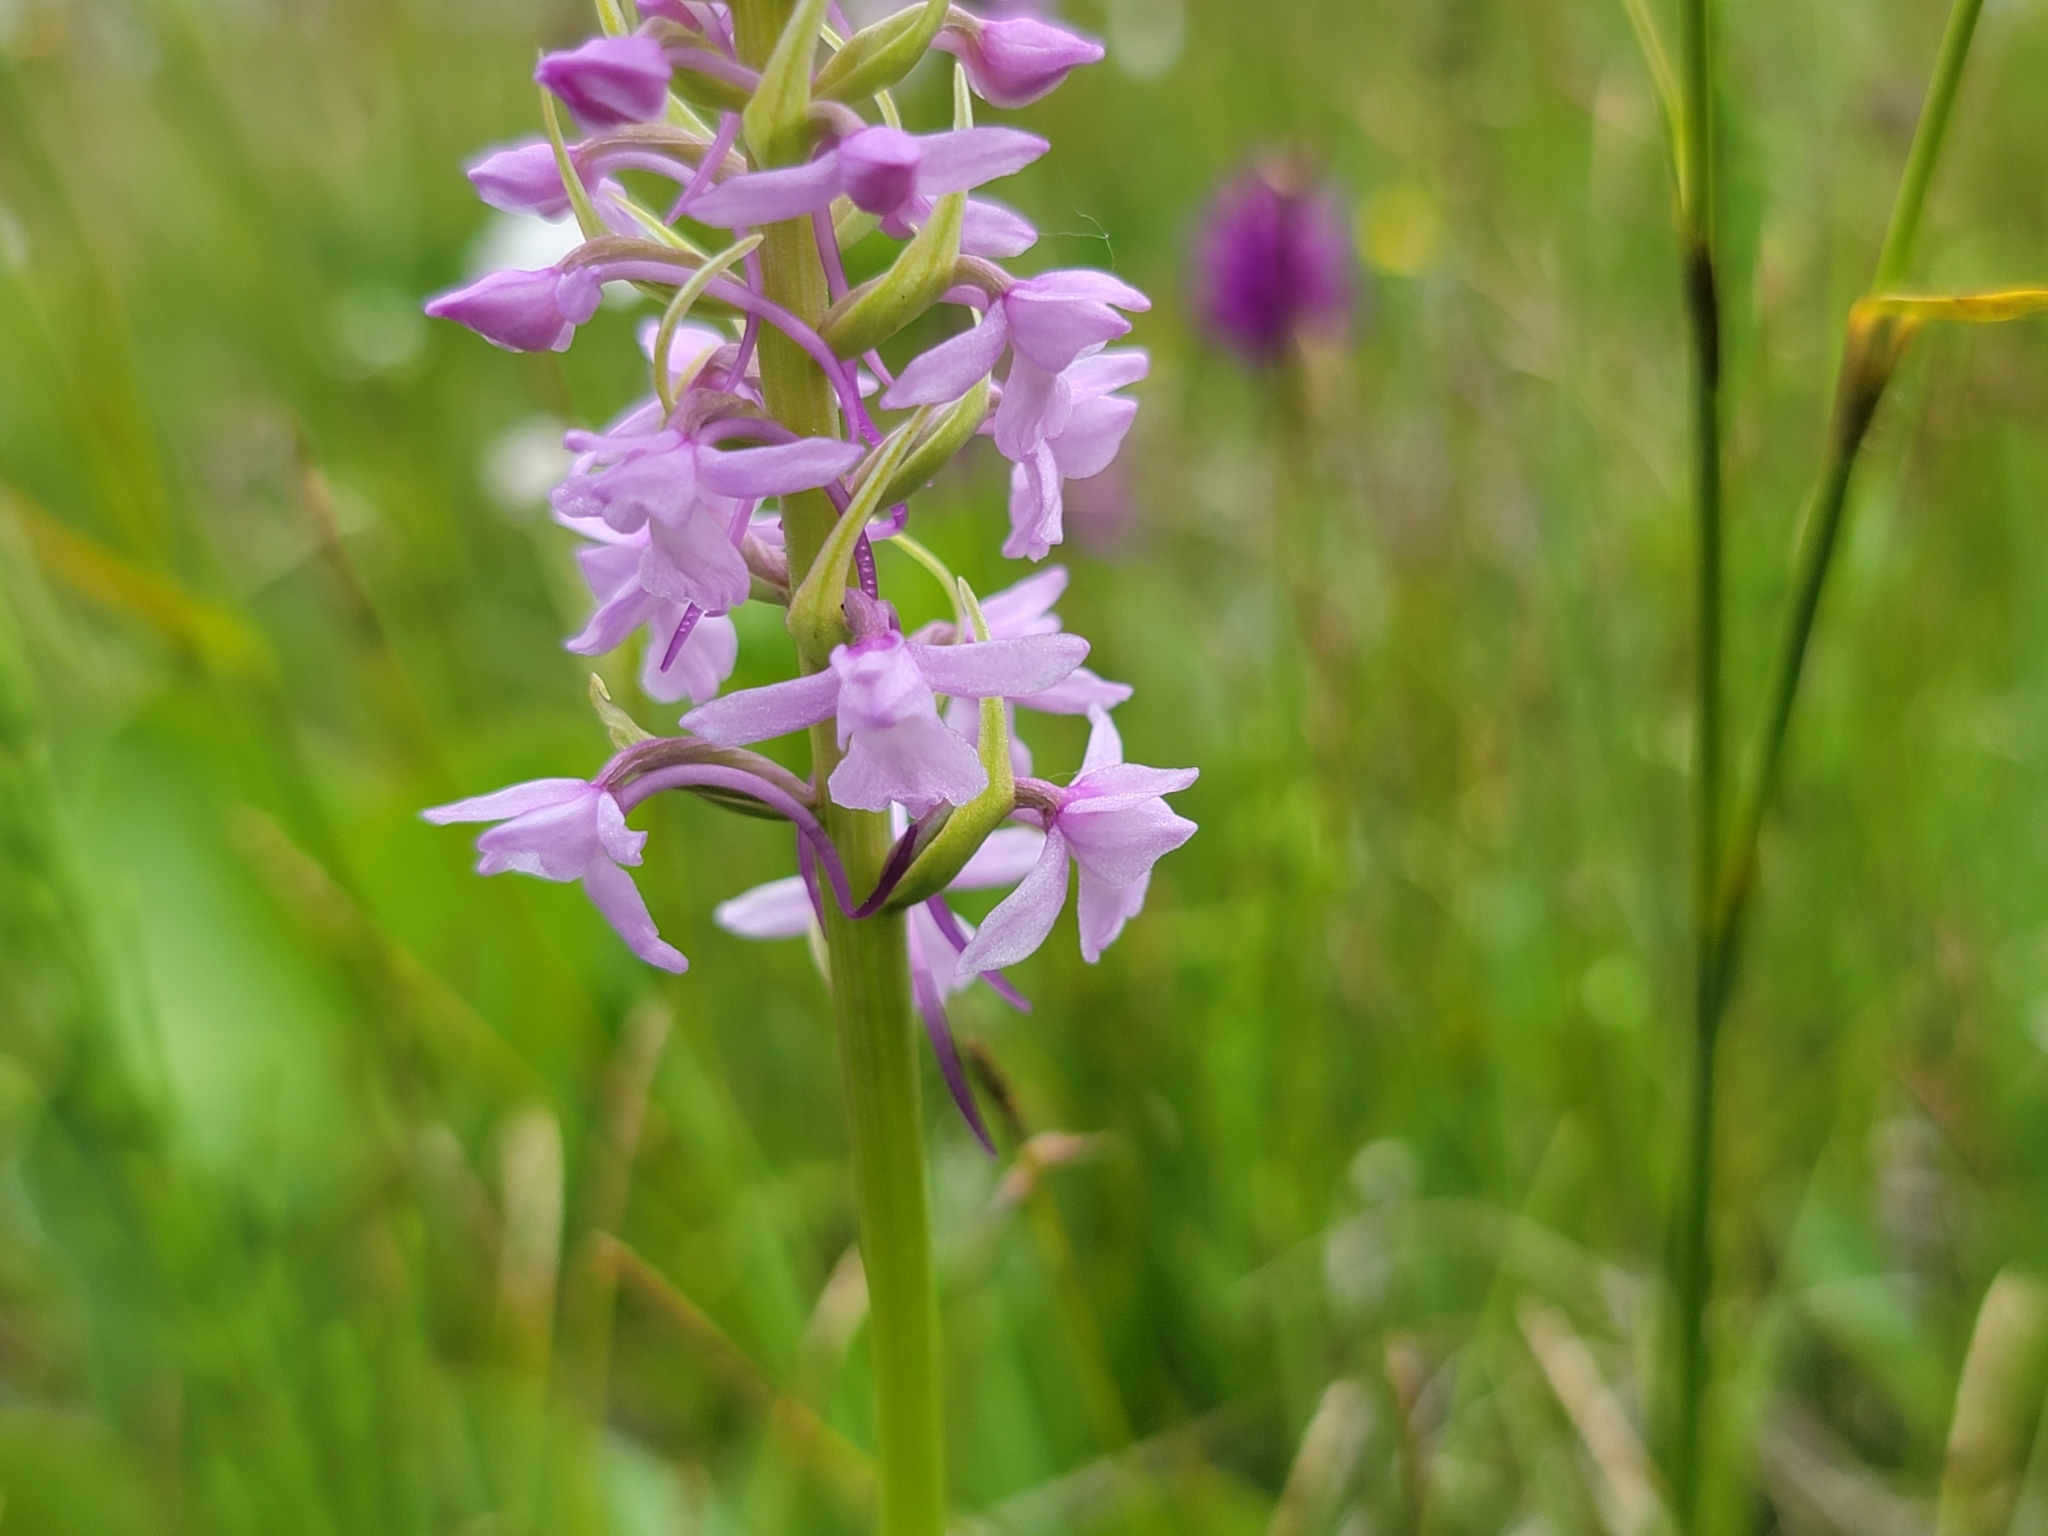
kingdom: Plantae
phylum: Tracheophyta
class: Liliopsida
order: Asparagales
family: Orchidaceae
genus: Gymnadenia
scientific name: Gymnadenia conopsea
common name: Fragrant orchid
